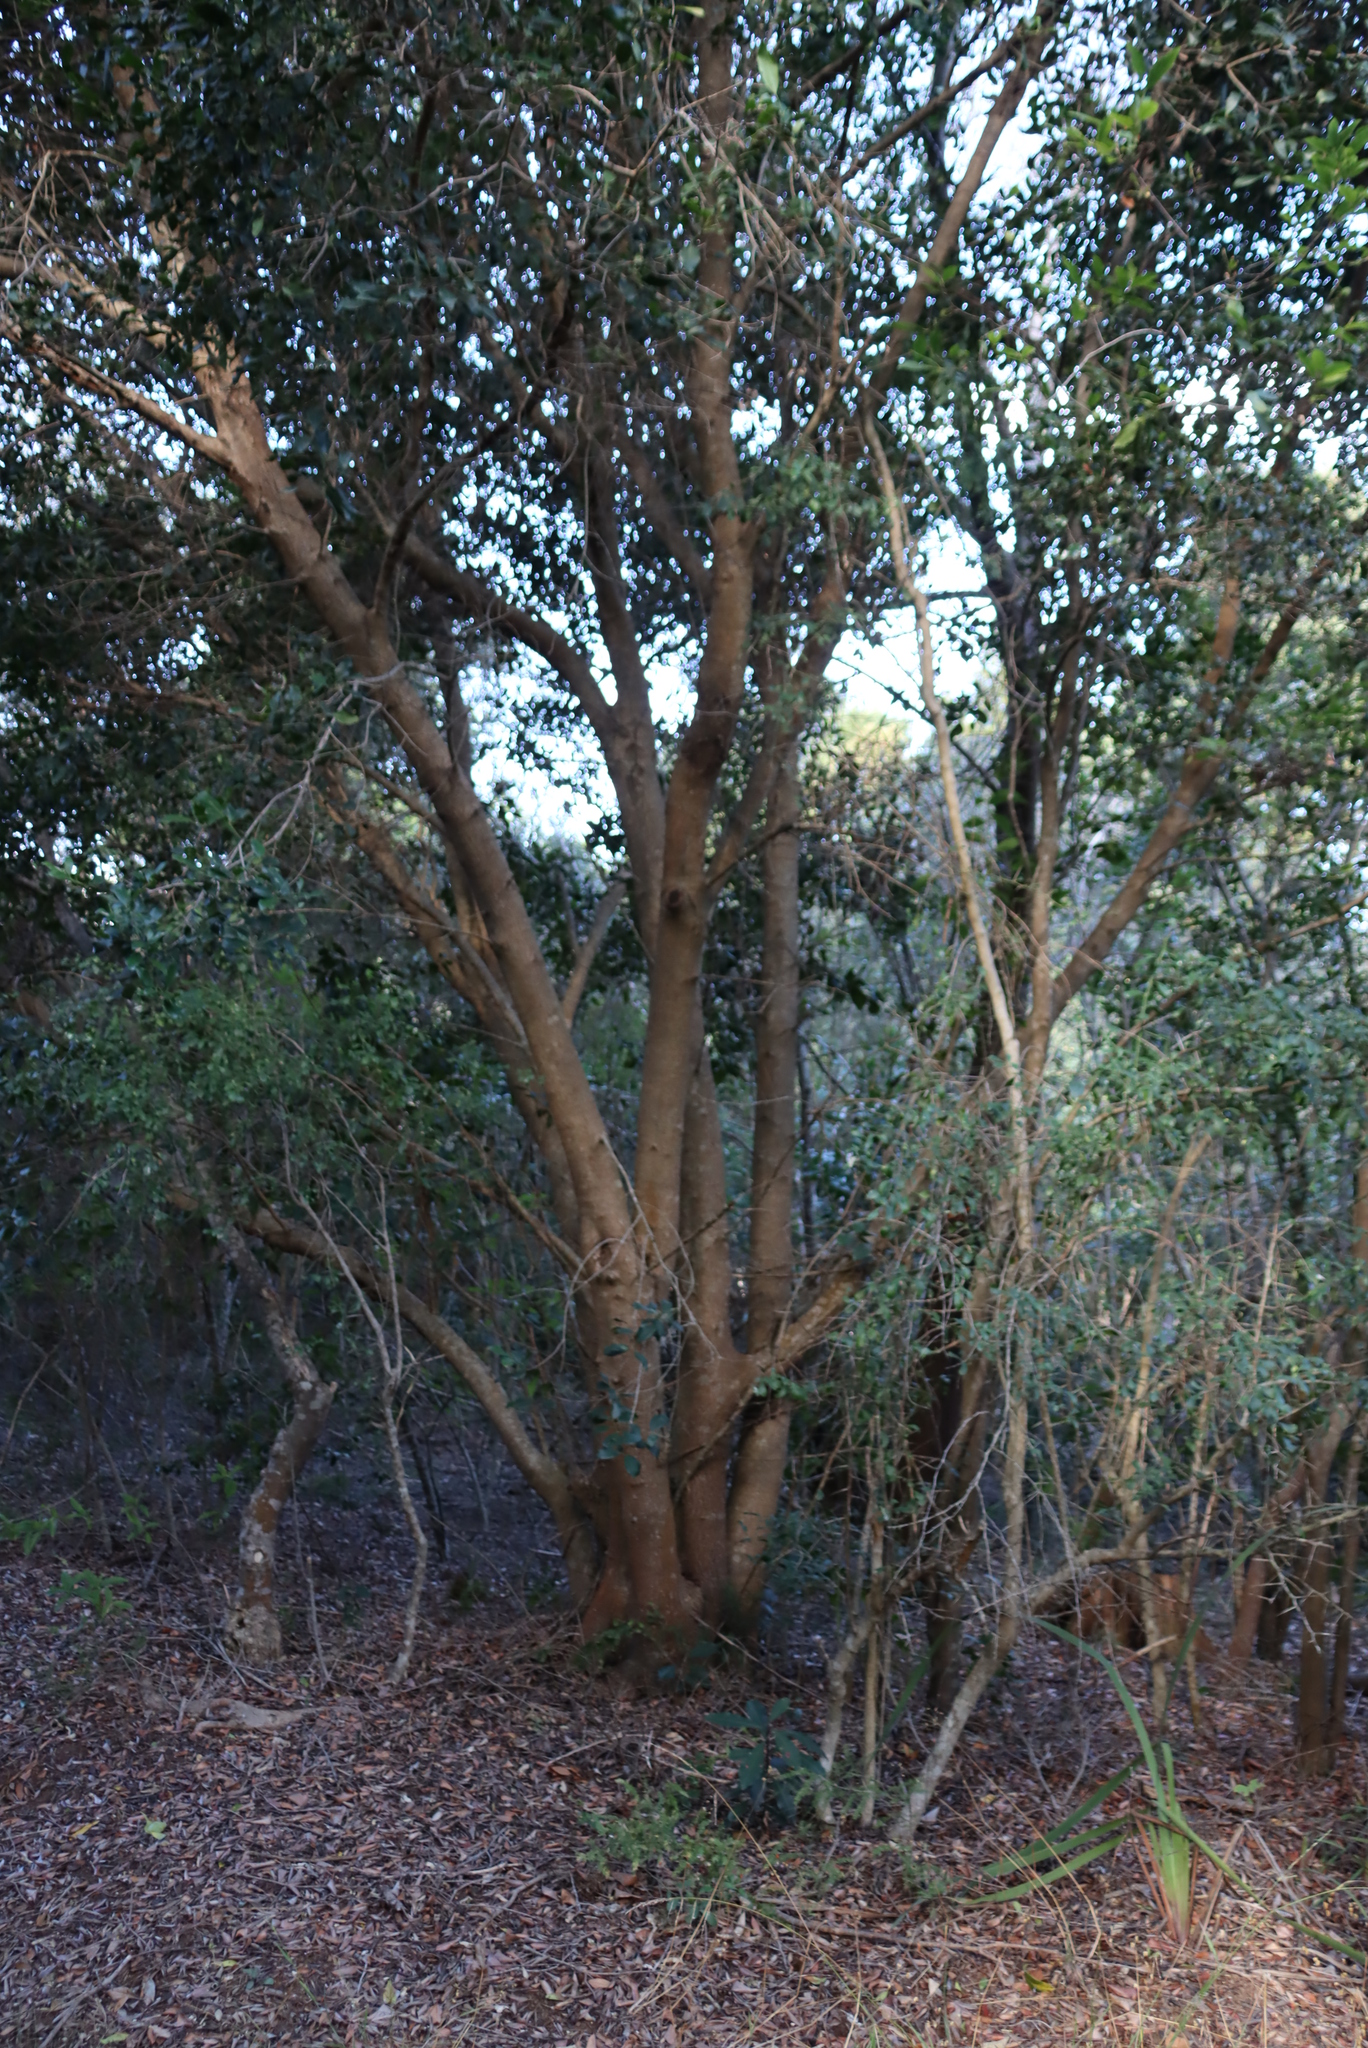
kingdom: Plantae
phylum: Tracheophyta
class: Magnoliopsida
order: Lamiales
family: Oleaceae
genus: Olea
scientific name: Olea capensis
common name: Black ironwood
